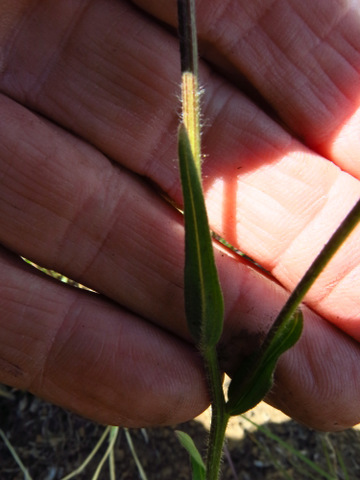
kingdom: Plantae
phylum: Tracheophyta
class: Magnoliopsida
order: Asterales
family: Asteraceae
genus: Afroaster
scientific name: Afroaster hispidus
